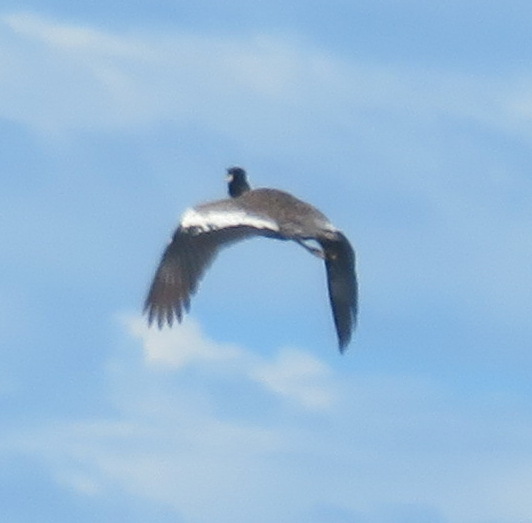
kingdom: Animalia
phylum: Chordata
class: Aves
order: Otidiformes
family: Otididae
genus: Afrotis
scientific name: Afrotis afra
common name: Southern black korhaan
